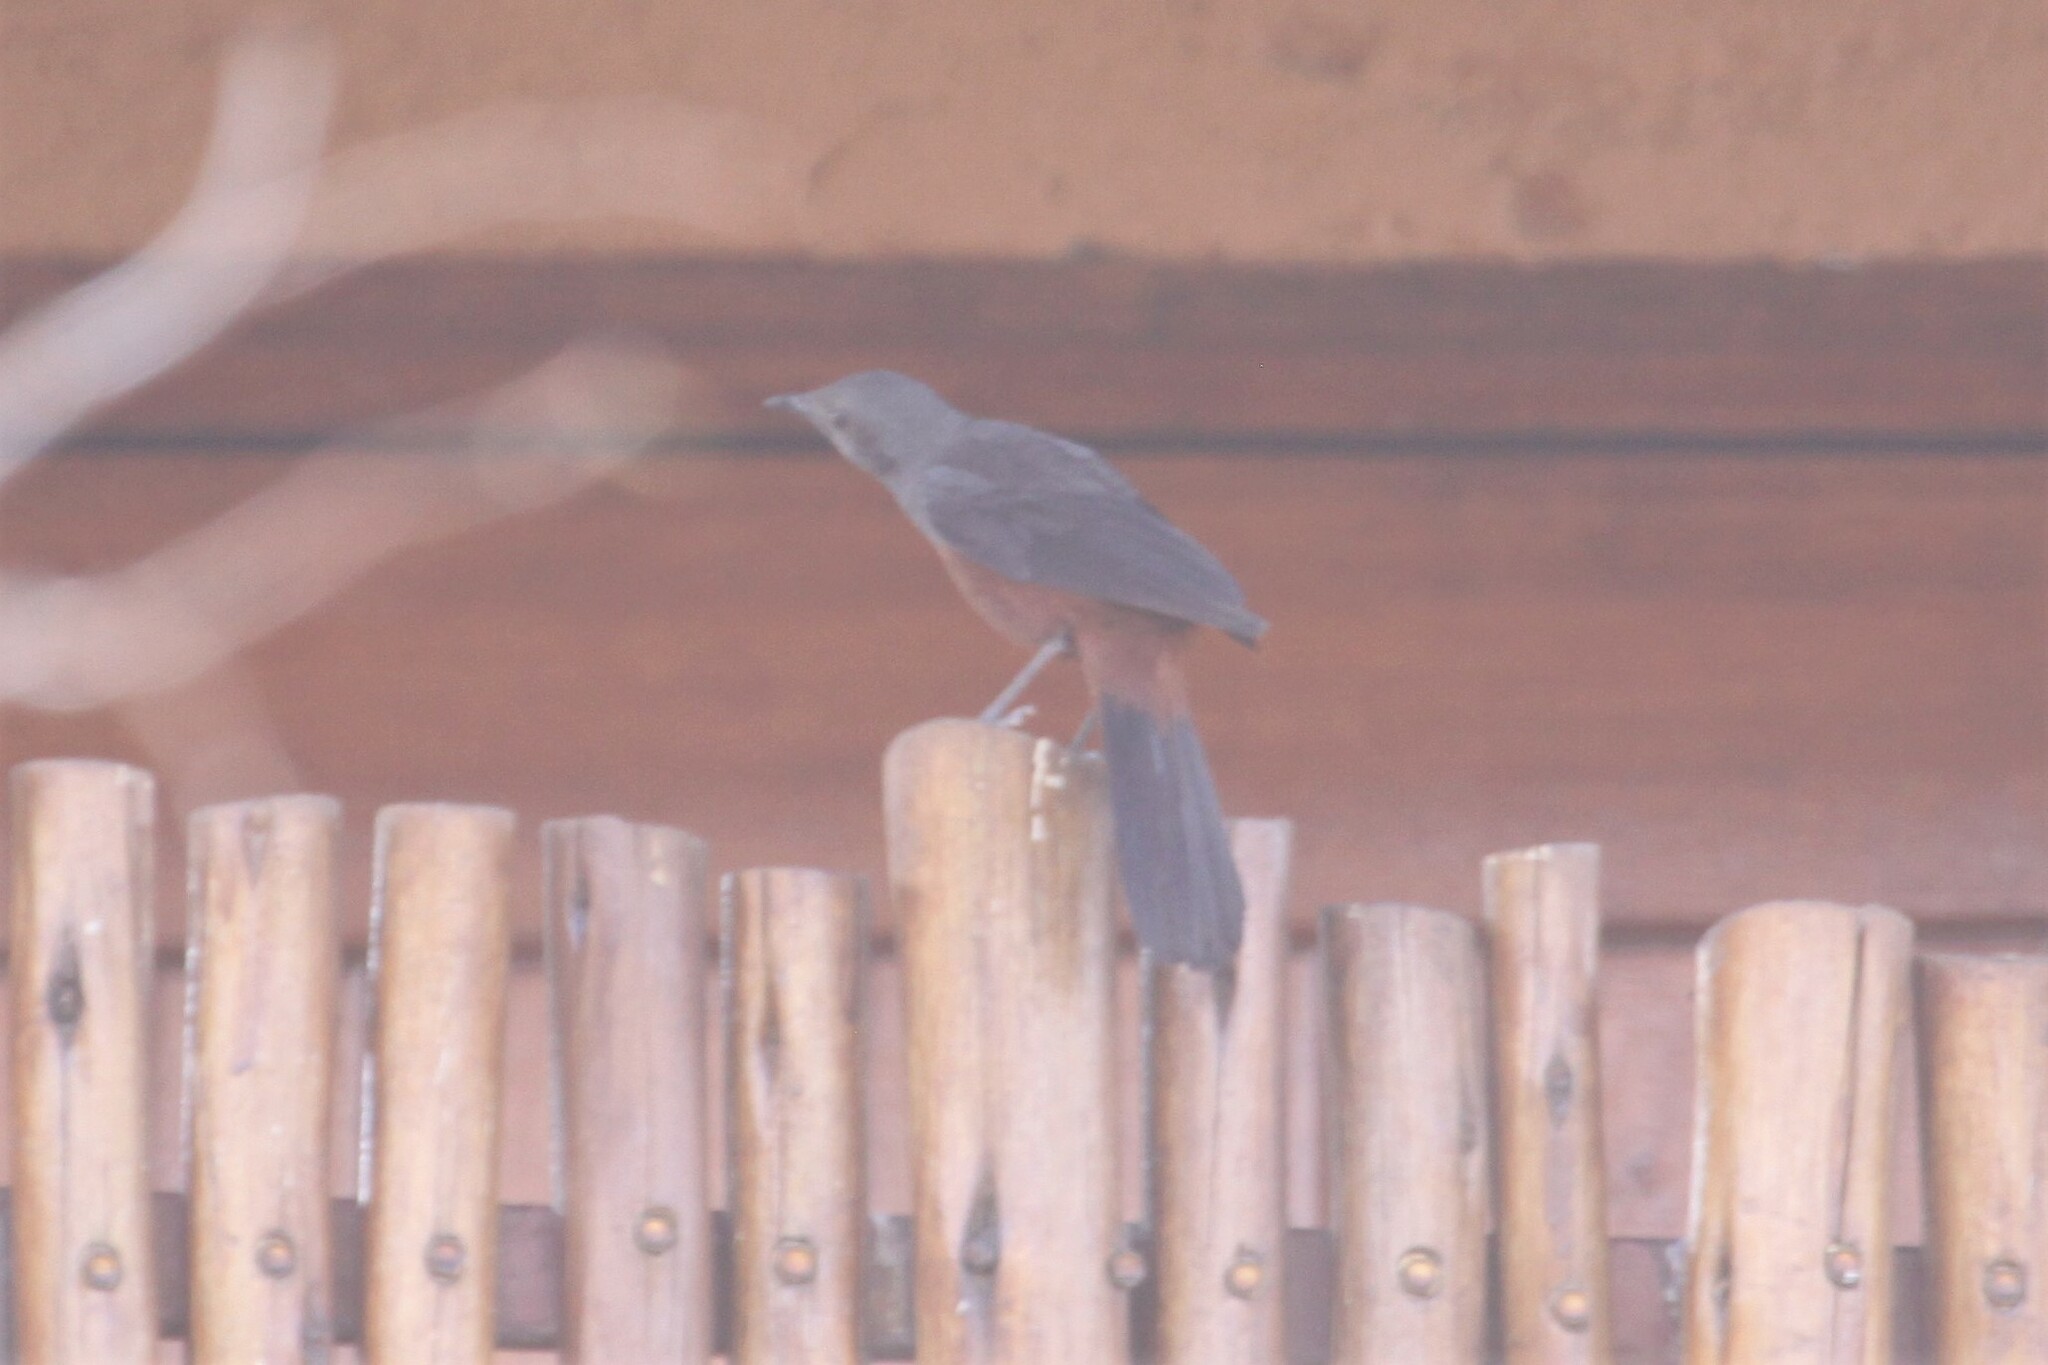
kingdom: Animalia
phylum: Chordata
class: Aves
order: Passeriformes
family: Muscicapidae
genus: Thamnolaea
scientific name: Thamnolaea cinnamomeiventris
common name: Mocking cliff chat
